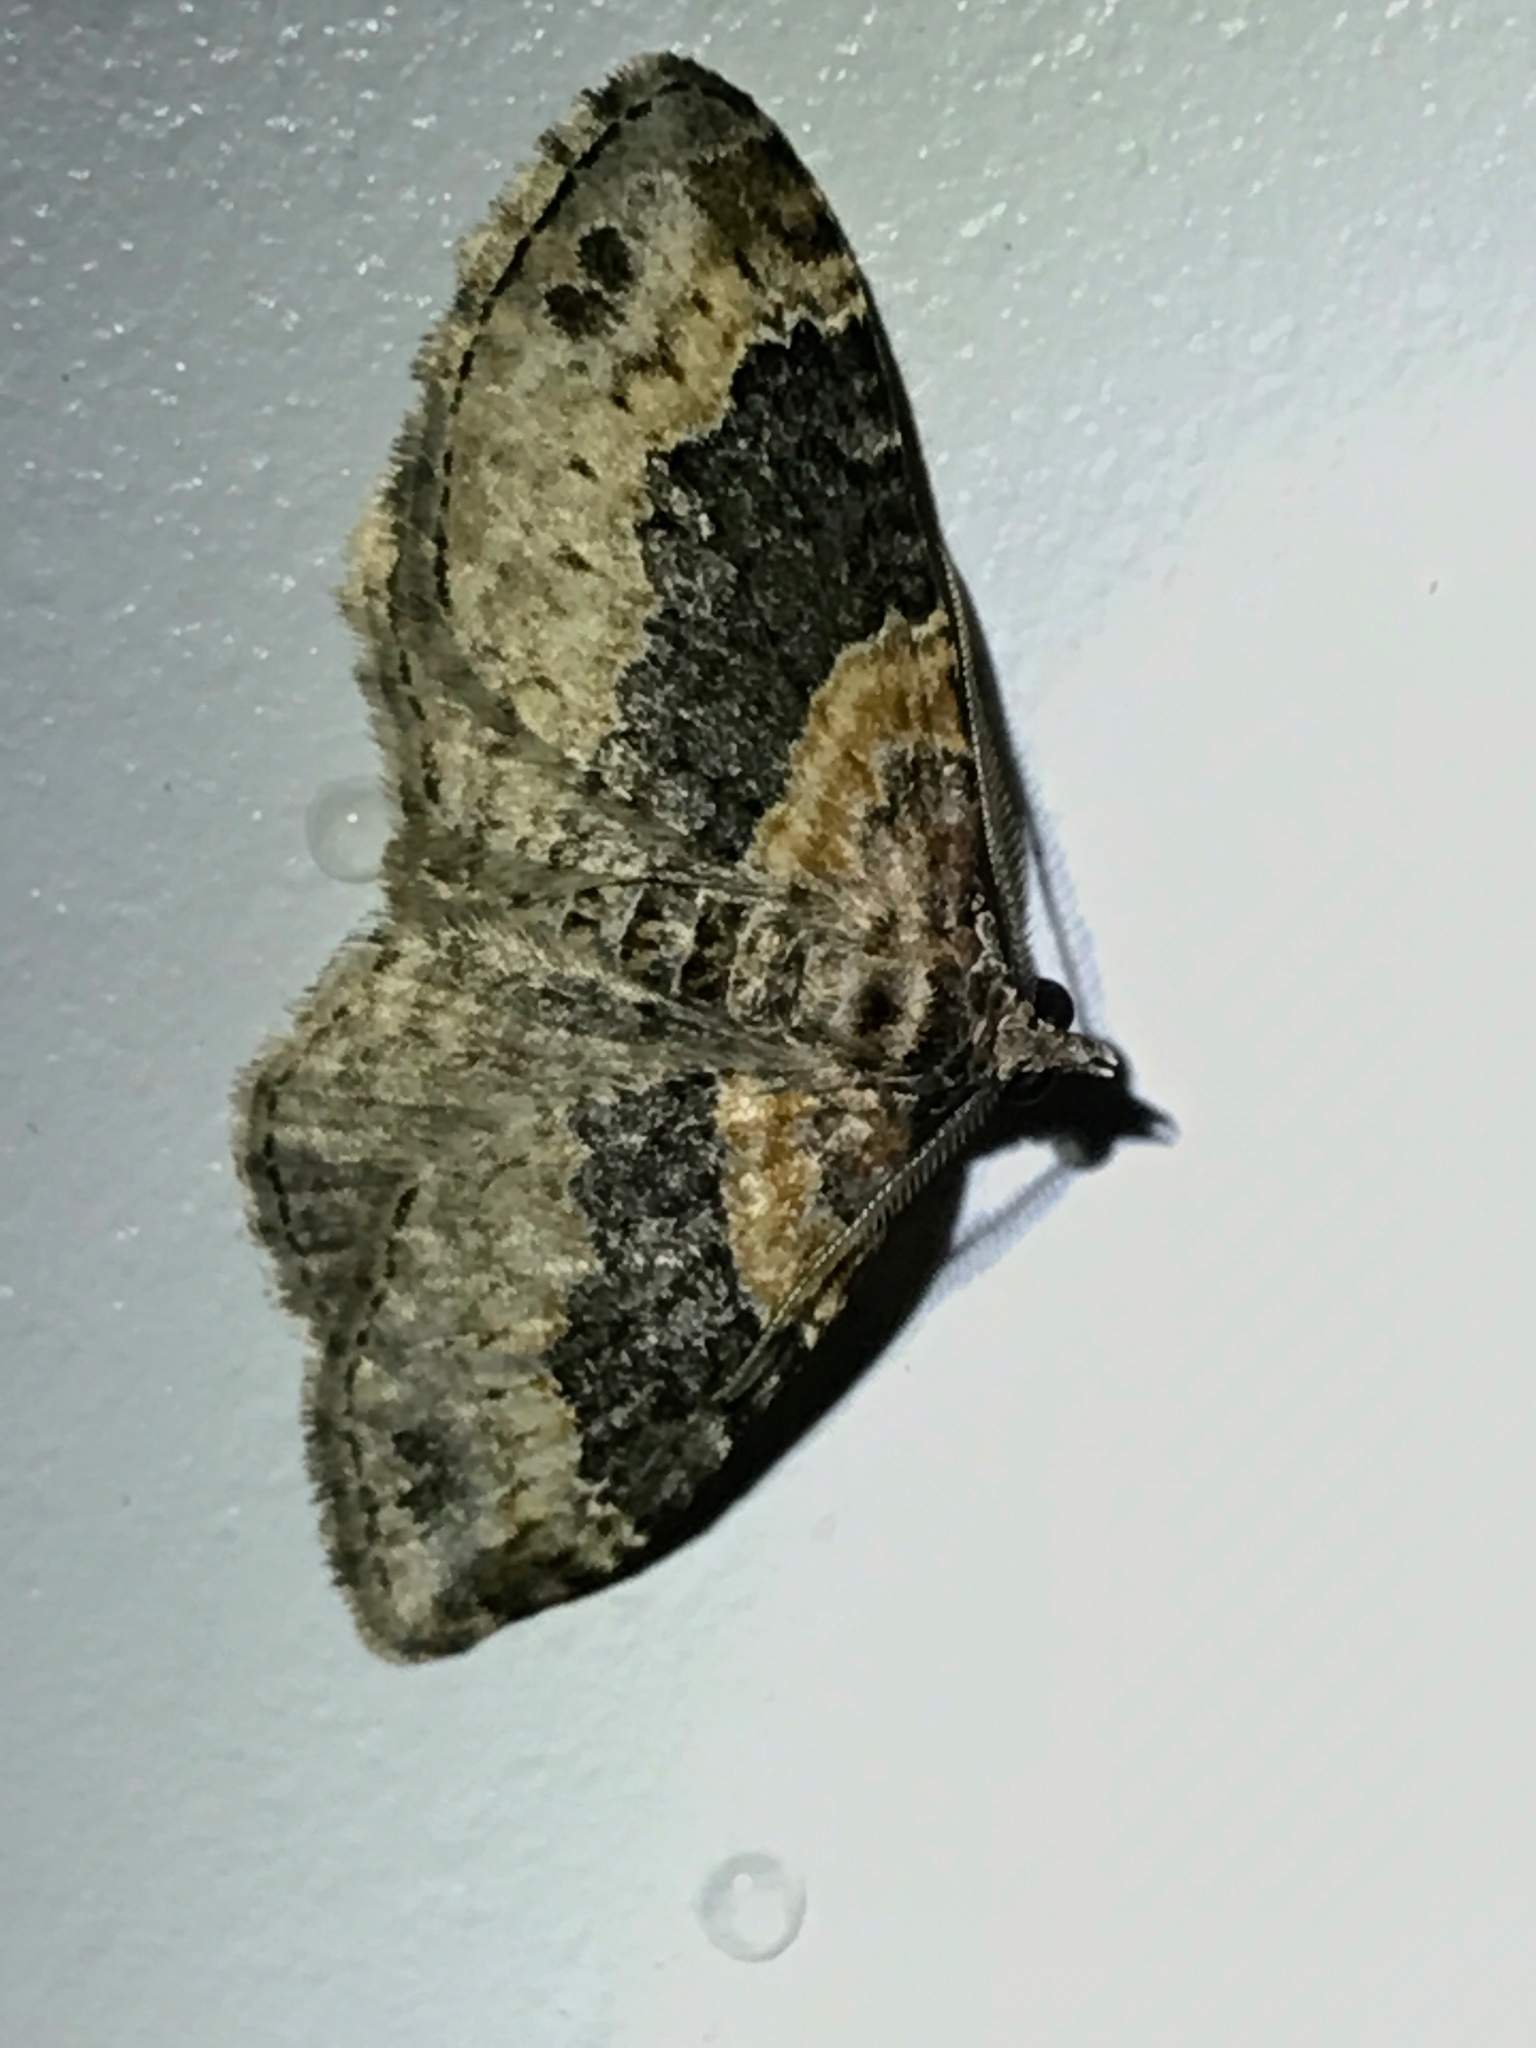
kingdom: Animalia
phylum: Arthropoda
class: Insecta
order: Lepidoptera
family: Geometridae
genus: Xanthorhoe
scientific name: Xanthorhoe ferrugata
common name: Dark-barred twin-spot carpet
